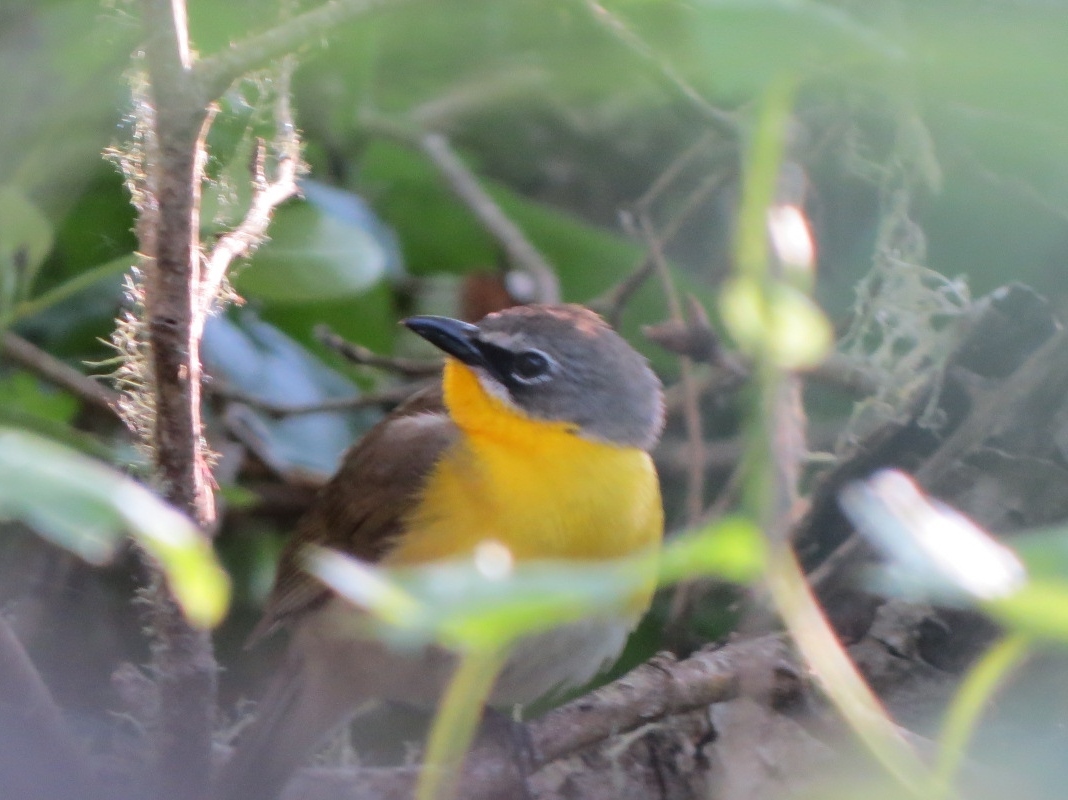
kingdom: Animalia
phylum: Chordata
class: Aves
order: Passeriformes
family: Parulidae
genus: Icteria
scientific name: Icteria virens
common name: Yellow-breasted chat
